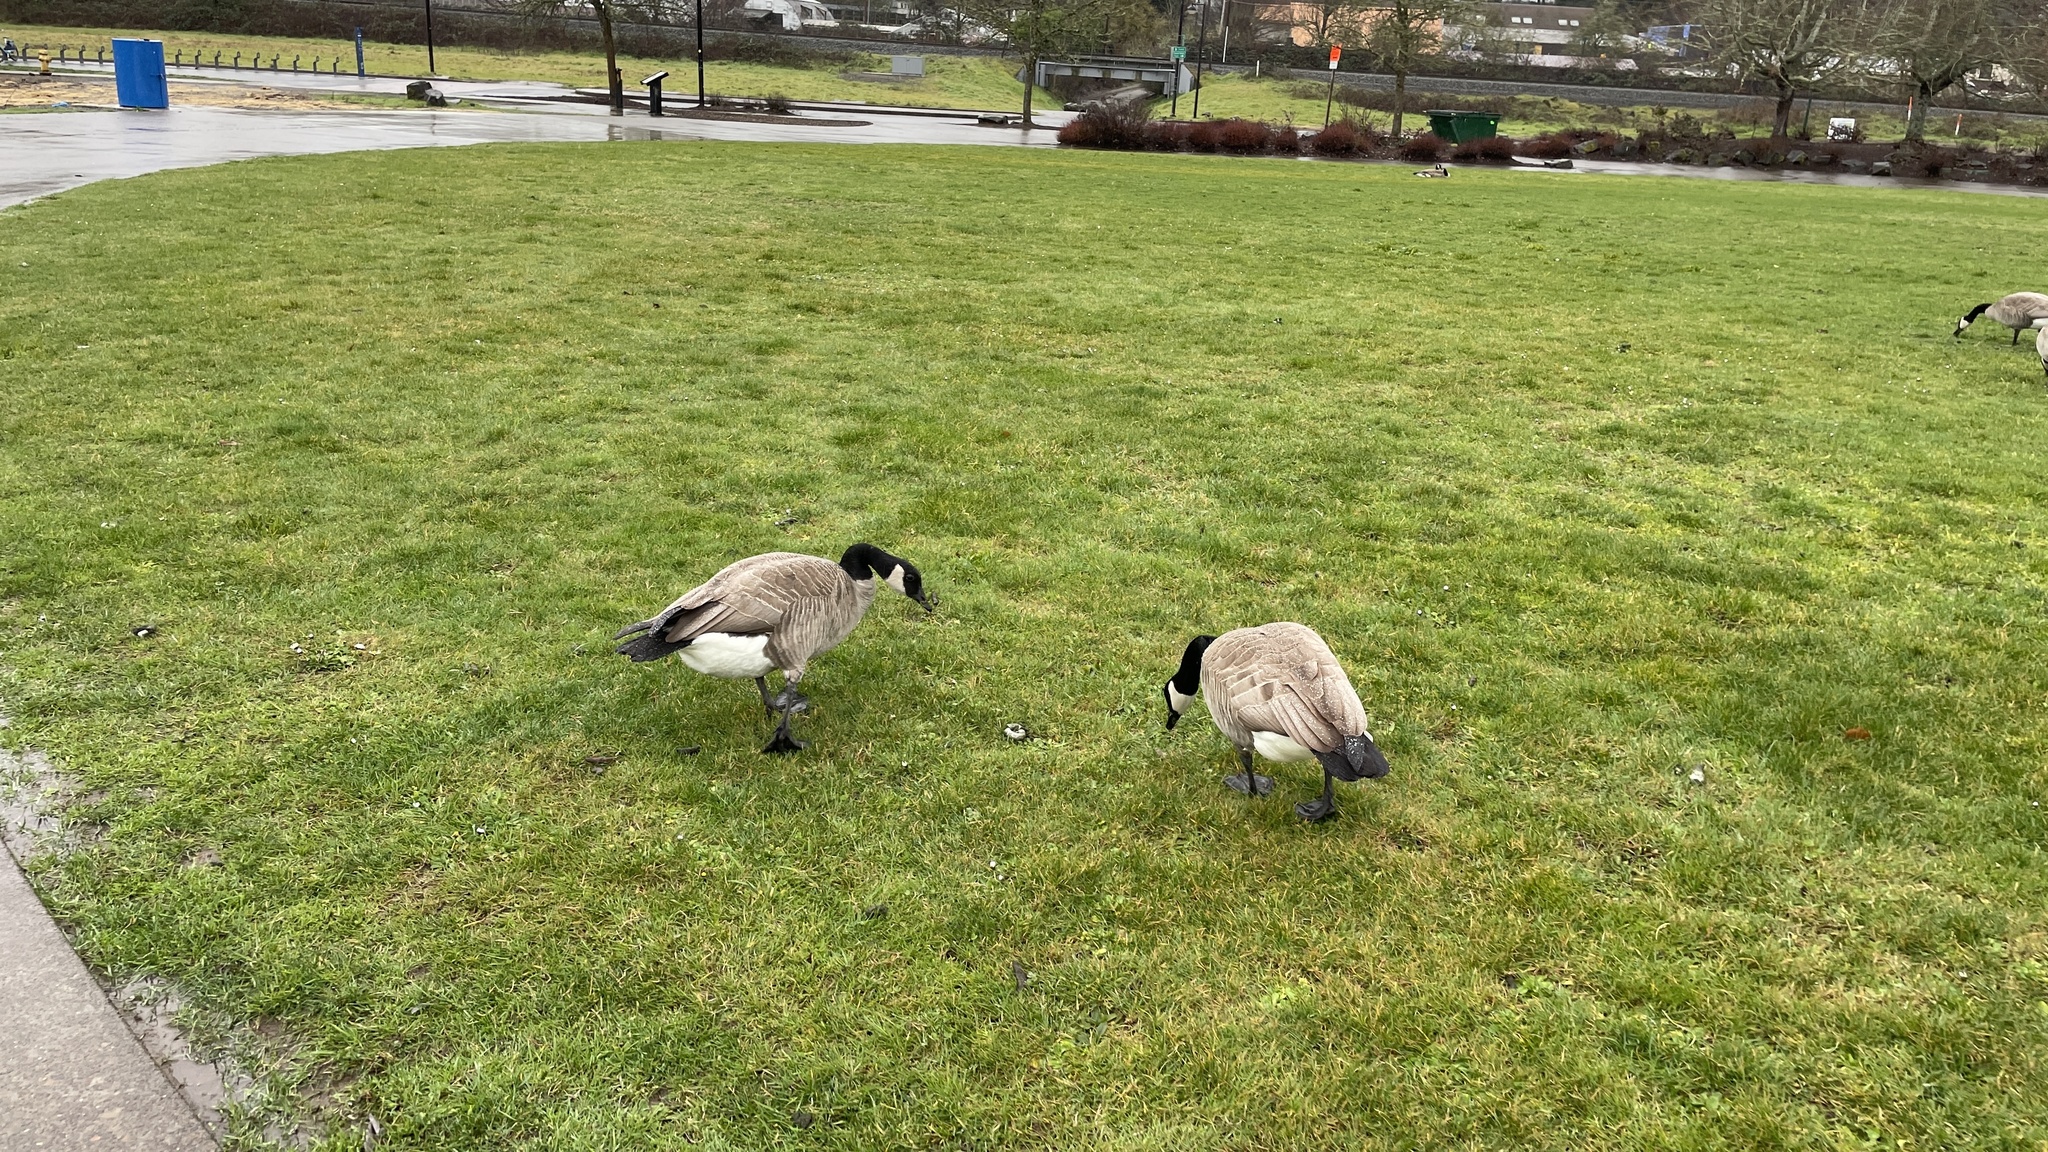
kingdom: Animalia
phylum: Chordata
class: Aves
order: Anseriformes
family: Anatidae
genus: Branta
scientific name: Branta canadensis
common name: Canada goose
